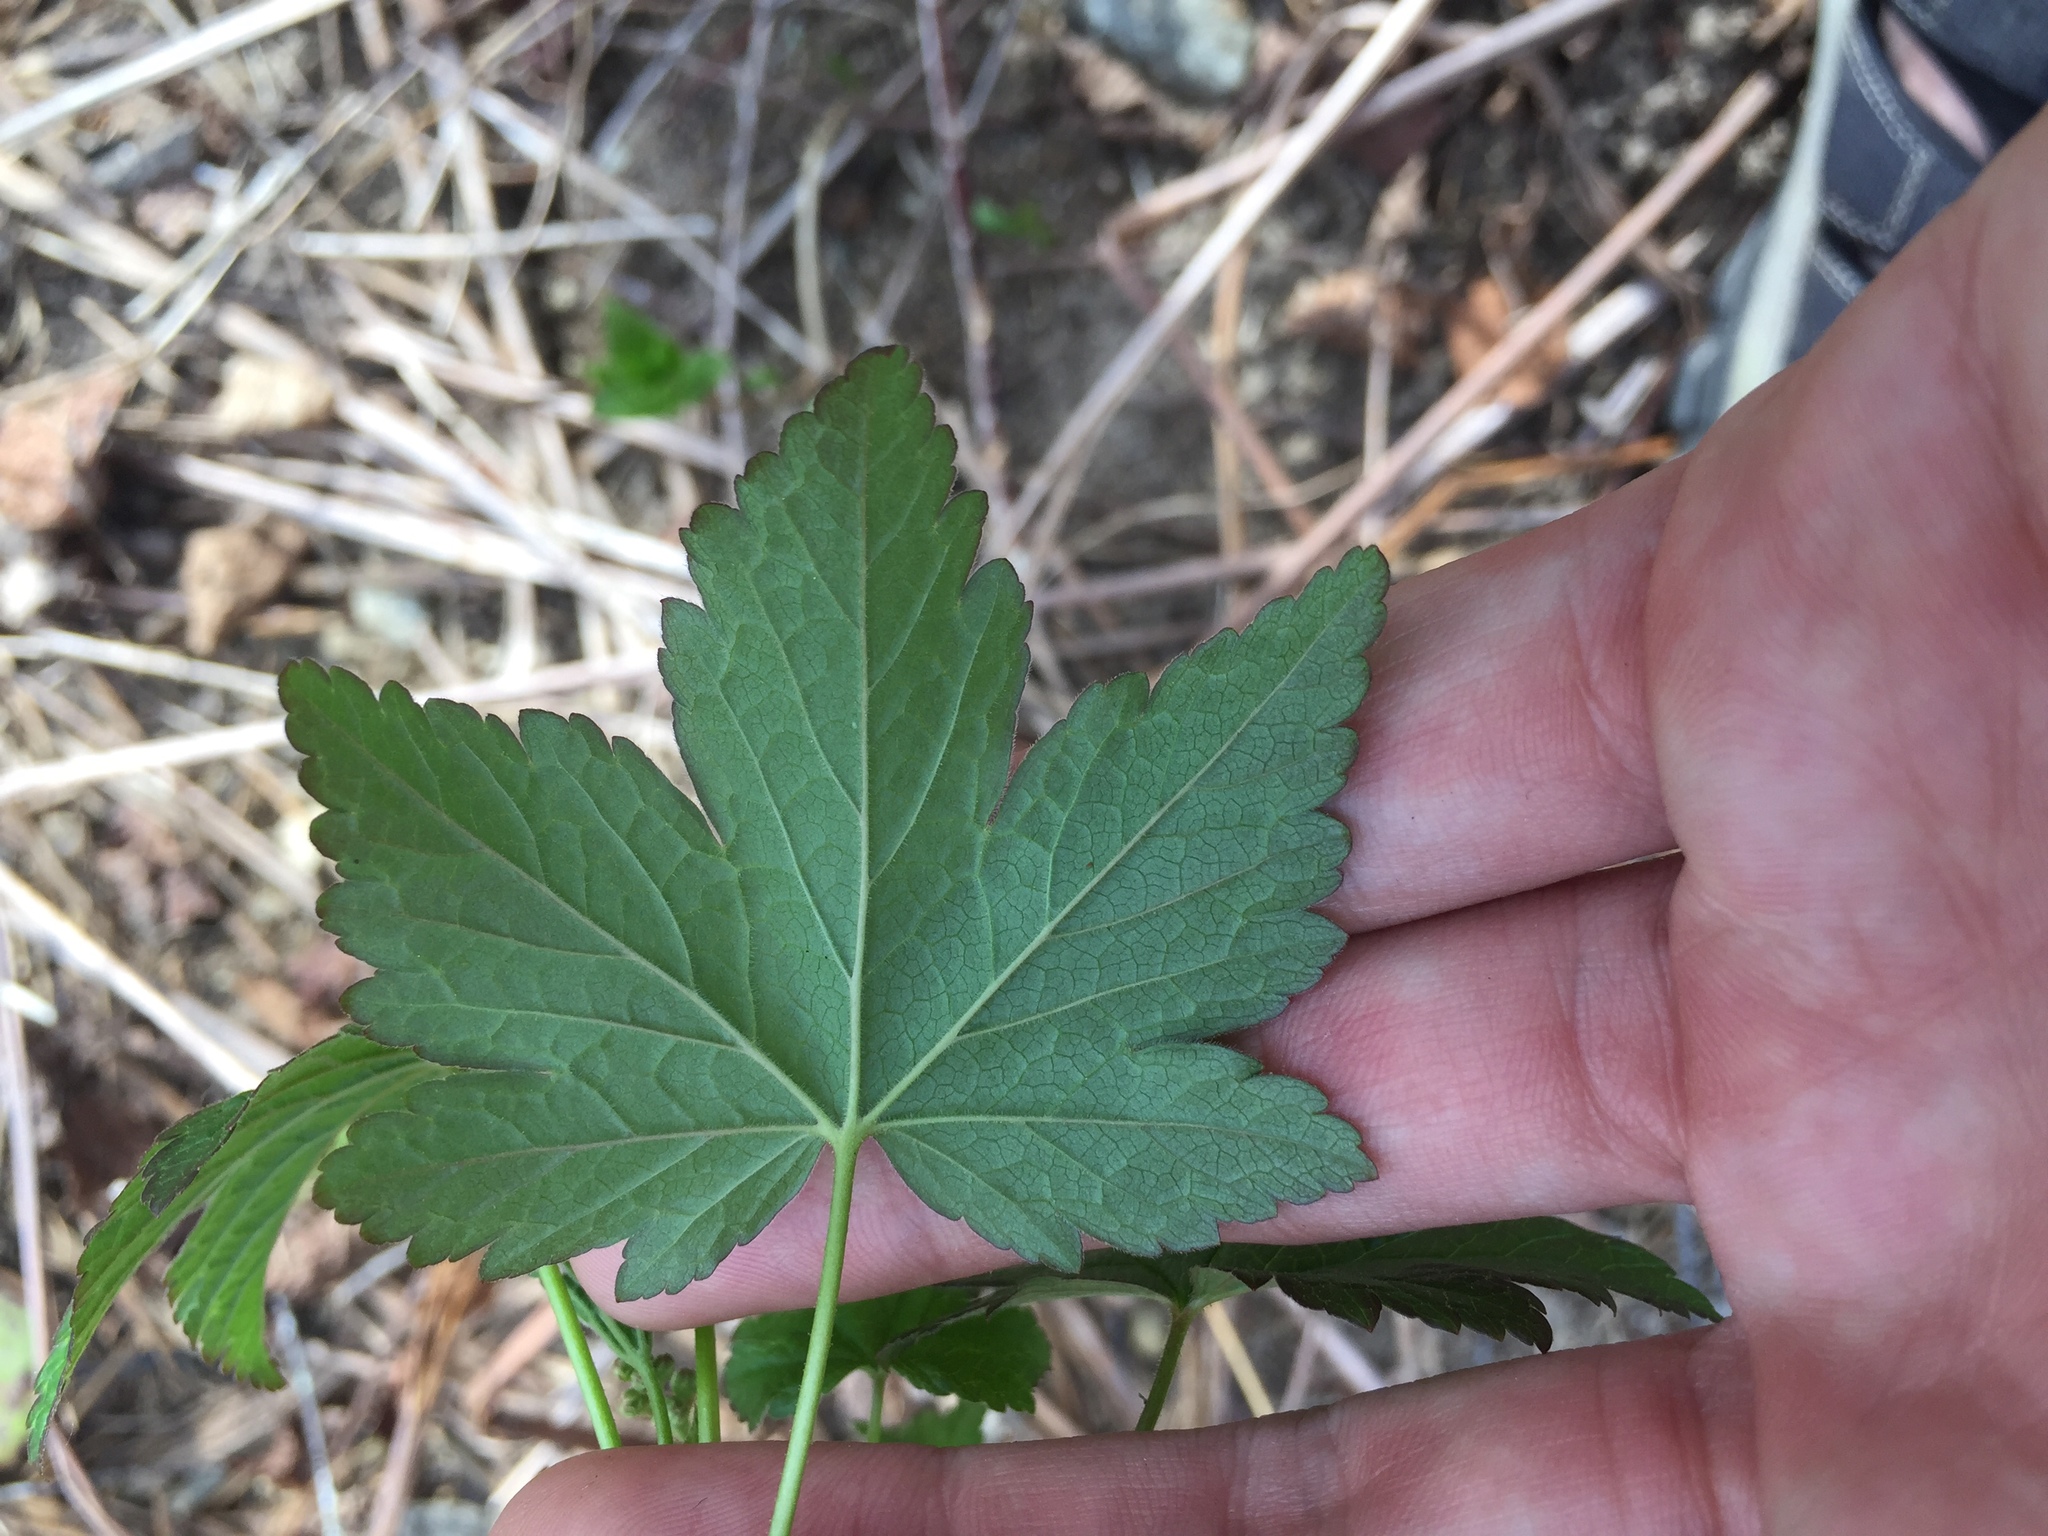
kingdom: Plantae
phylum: Tracheophyta
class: Magnoliopsida
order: Saxifragales
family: Grossulariaceae
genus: Ribes
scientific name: Ribes glandulosum
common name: Skunk currant
